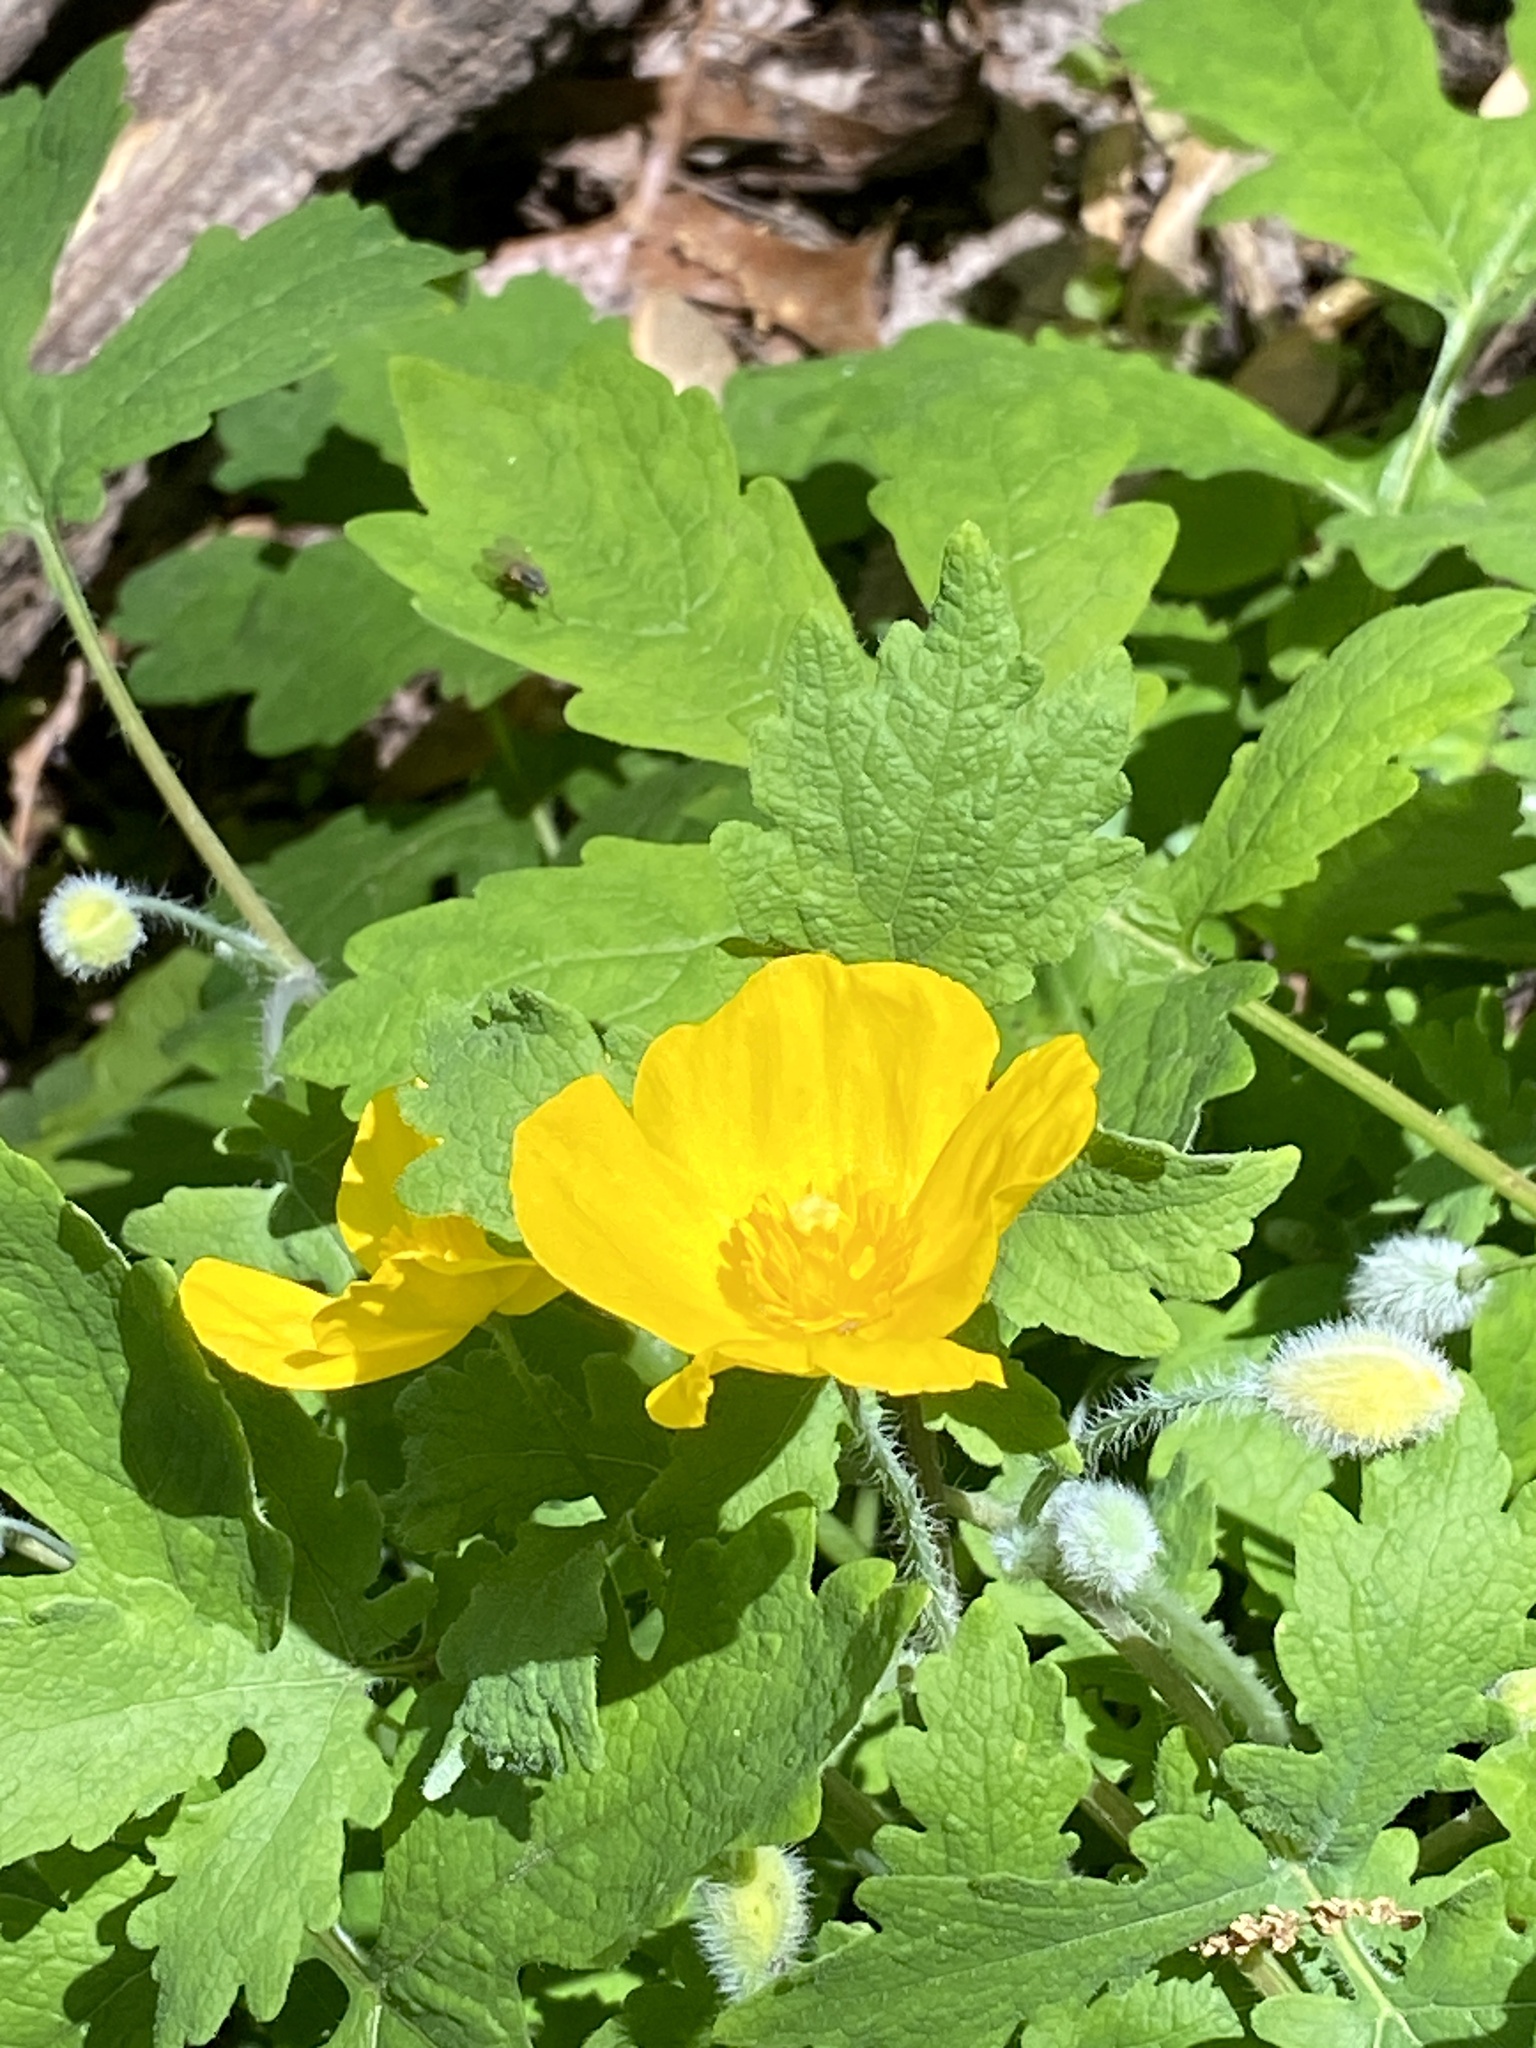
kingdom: Plantae
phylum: Tracheophyta
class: Magnoliopsida
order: Ranunculales
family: Papaveraceae
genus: Stylophorum
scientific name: Stylophorum diphyllum
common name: Celandine poppy
